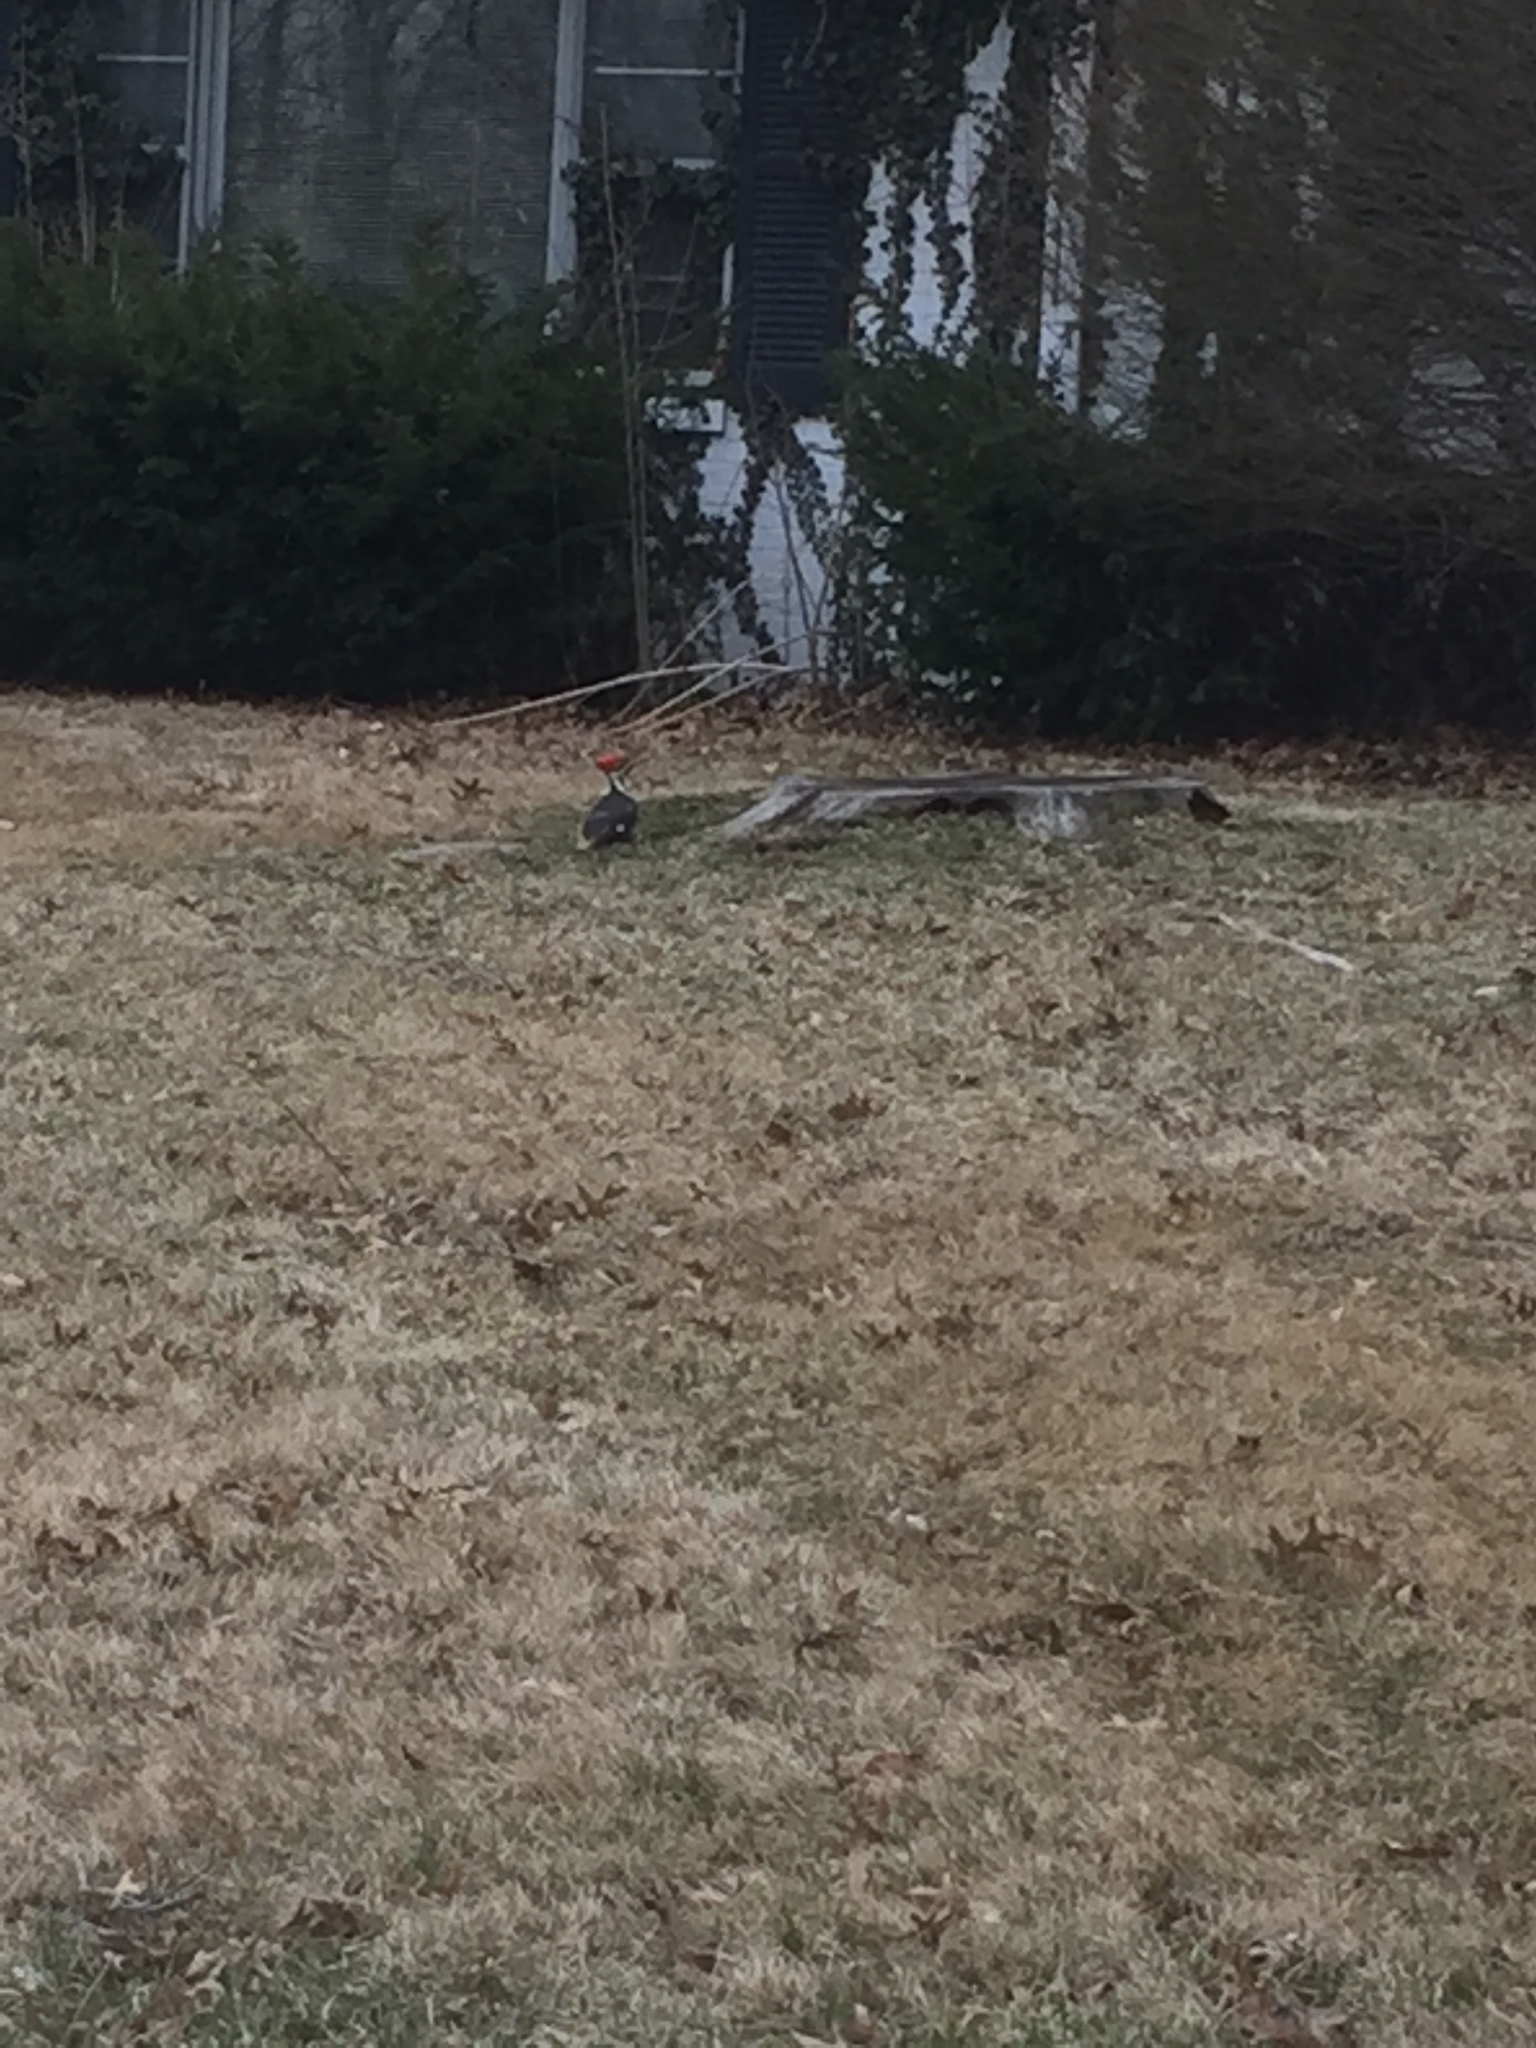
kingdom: Animalia
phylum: Chordata
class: Aves
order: Piciformes
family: Picidae
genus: Dryocopus
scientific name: Dryocopus pileatus
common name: Pileated woodpecker
